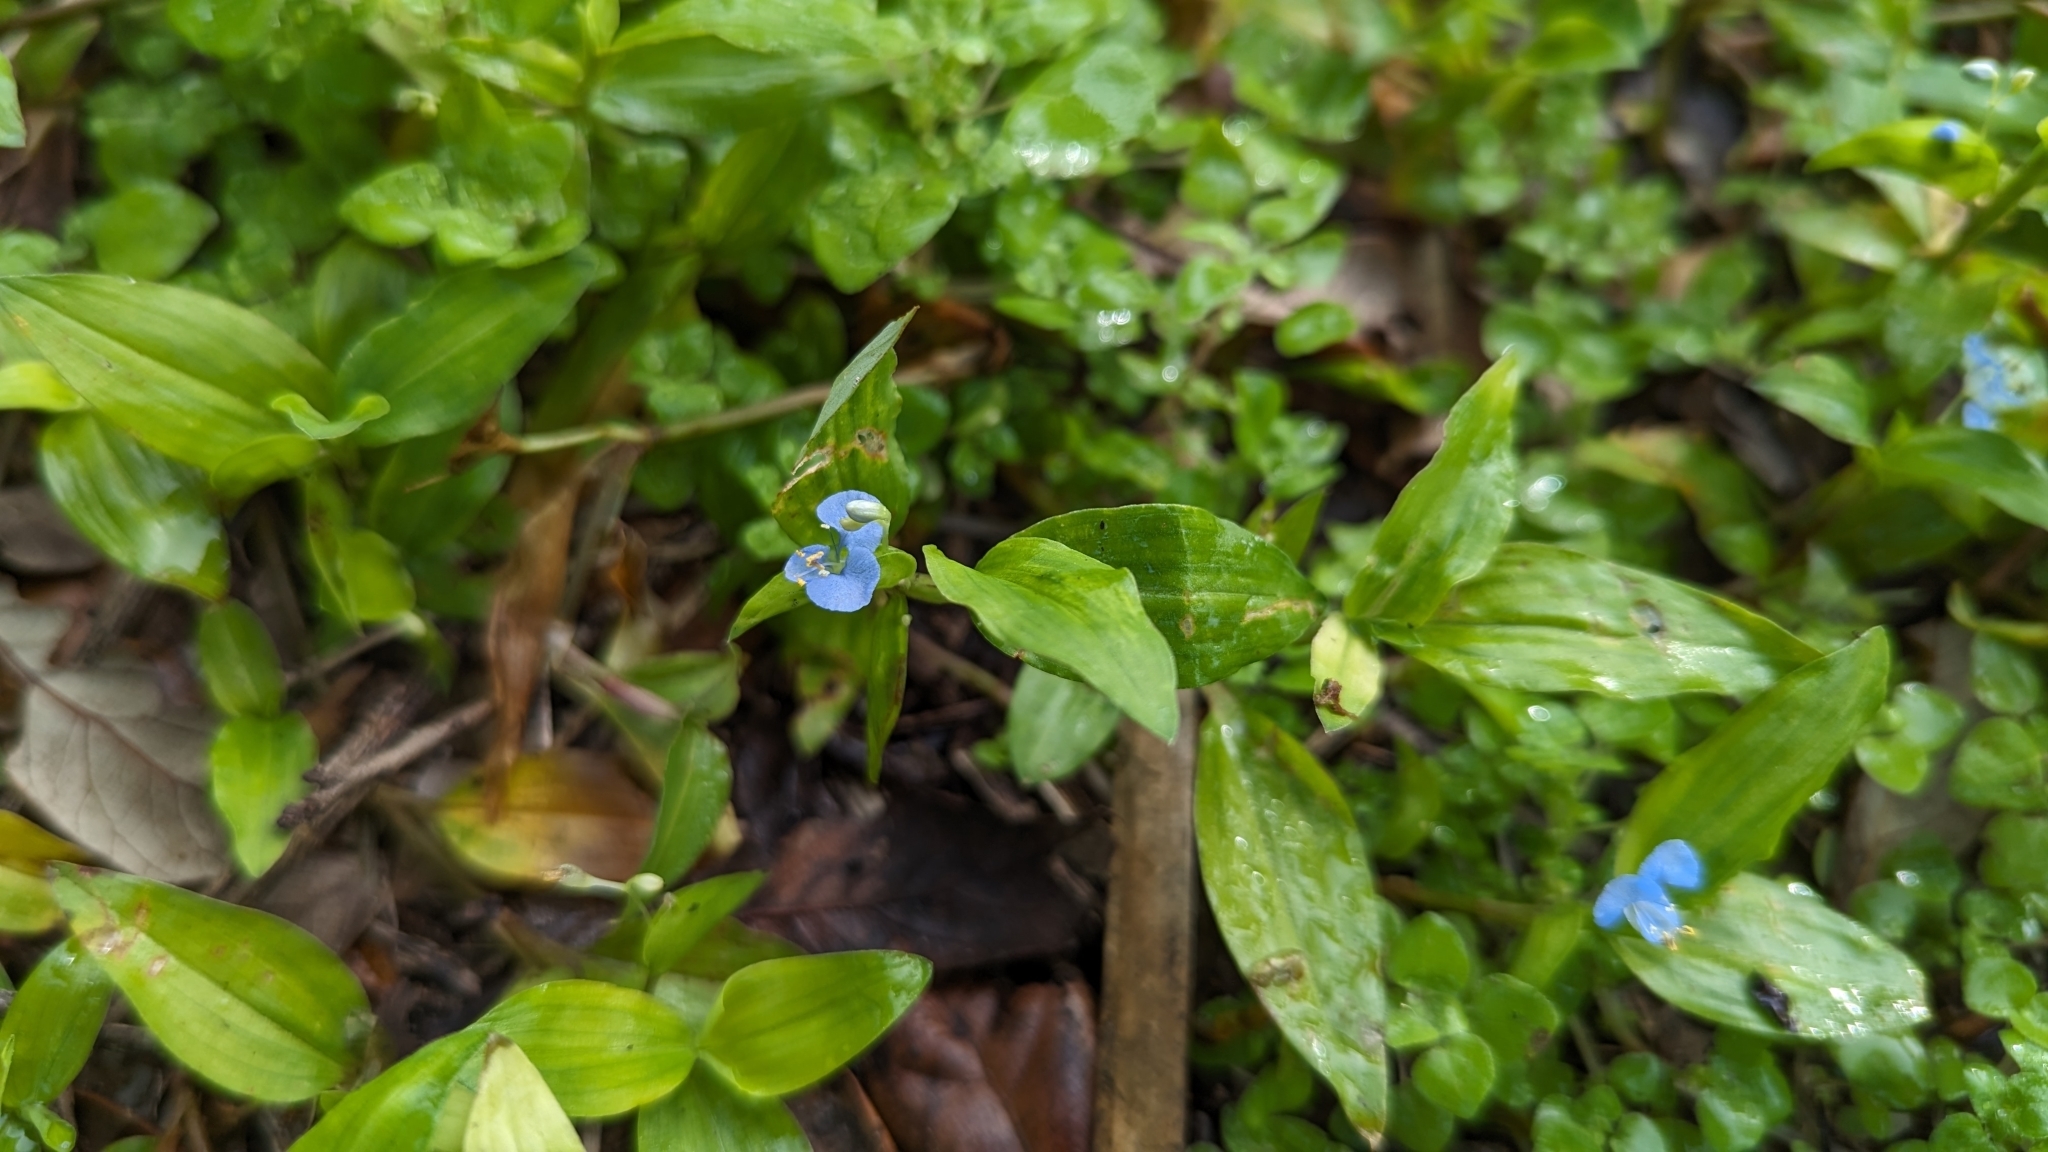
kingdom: Plantae
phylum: Tracheophyta
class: Liliopsida
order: Commelinales
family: Commelinaceae
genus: Commelina
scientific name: Commelina diffusa
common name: Climbing dayflower
